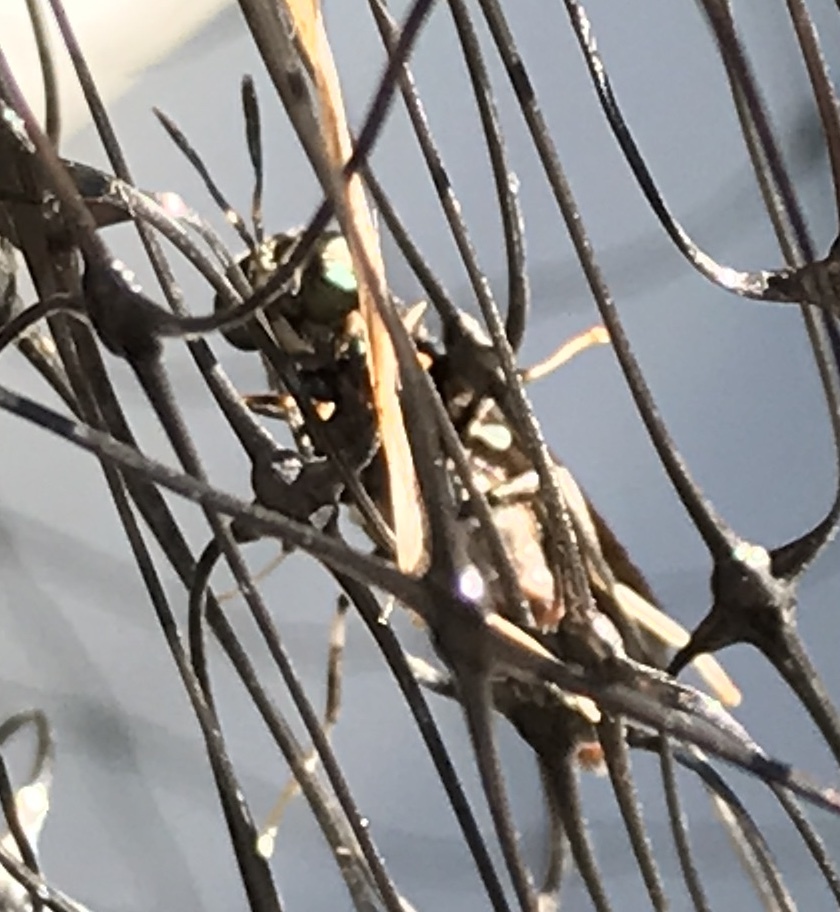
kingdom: Animalia
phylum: Arthropoda
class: Insecta
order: Diptera
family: Stratiomyidae
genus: Hermetia
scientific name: Hermetia illucens
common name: Black soldier fly
